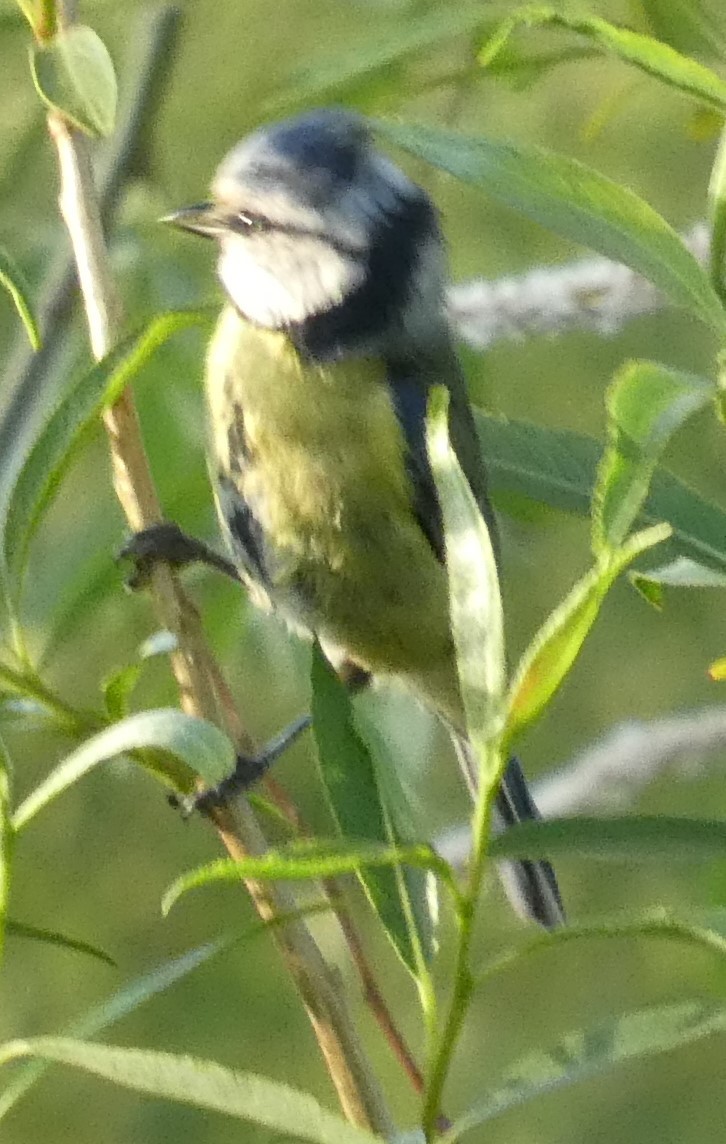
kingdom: Animalia
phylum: Chordata
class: Aves
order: Passeriformes
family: Paridae
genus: Cyanistes
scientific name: Cyanistes caeruleus
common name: Eurasian blue tit
